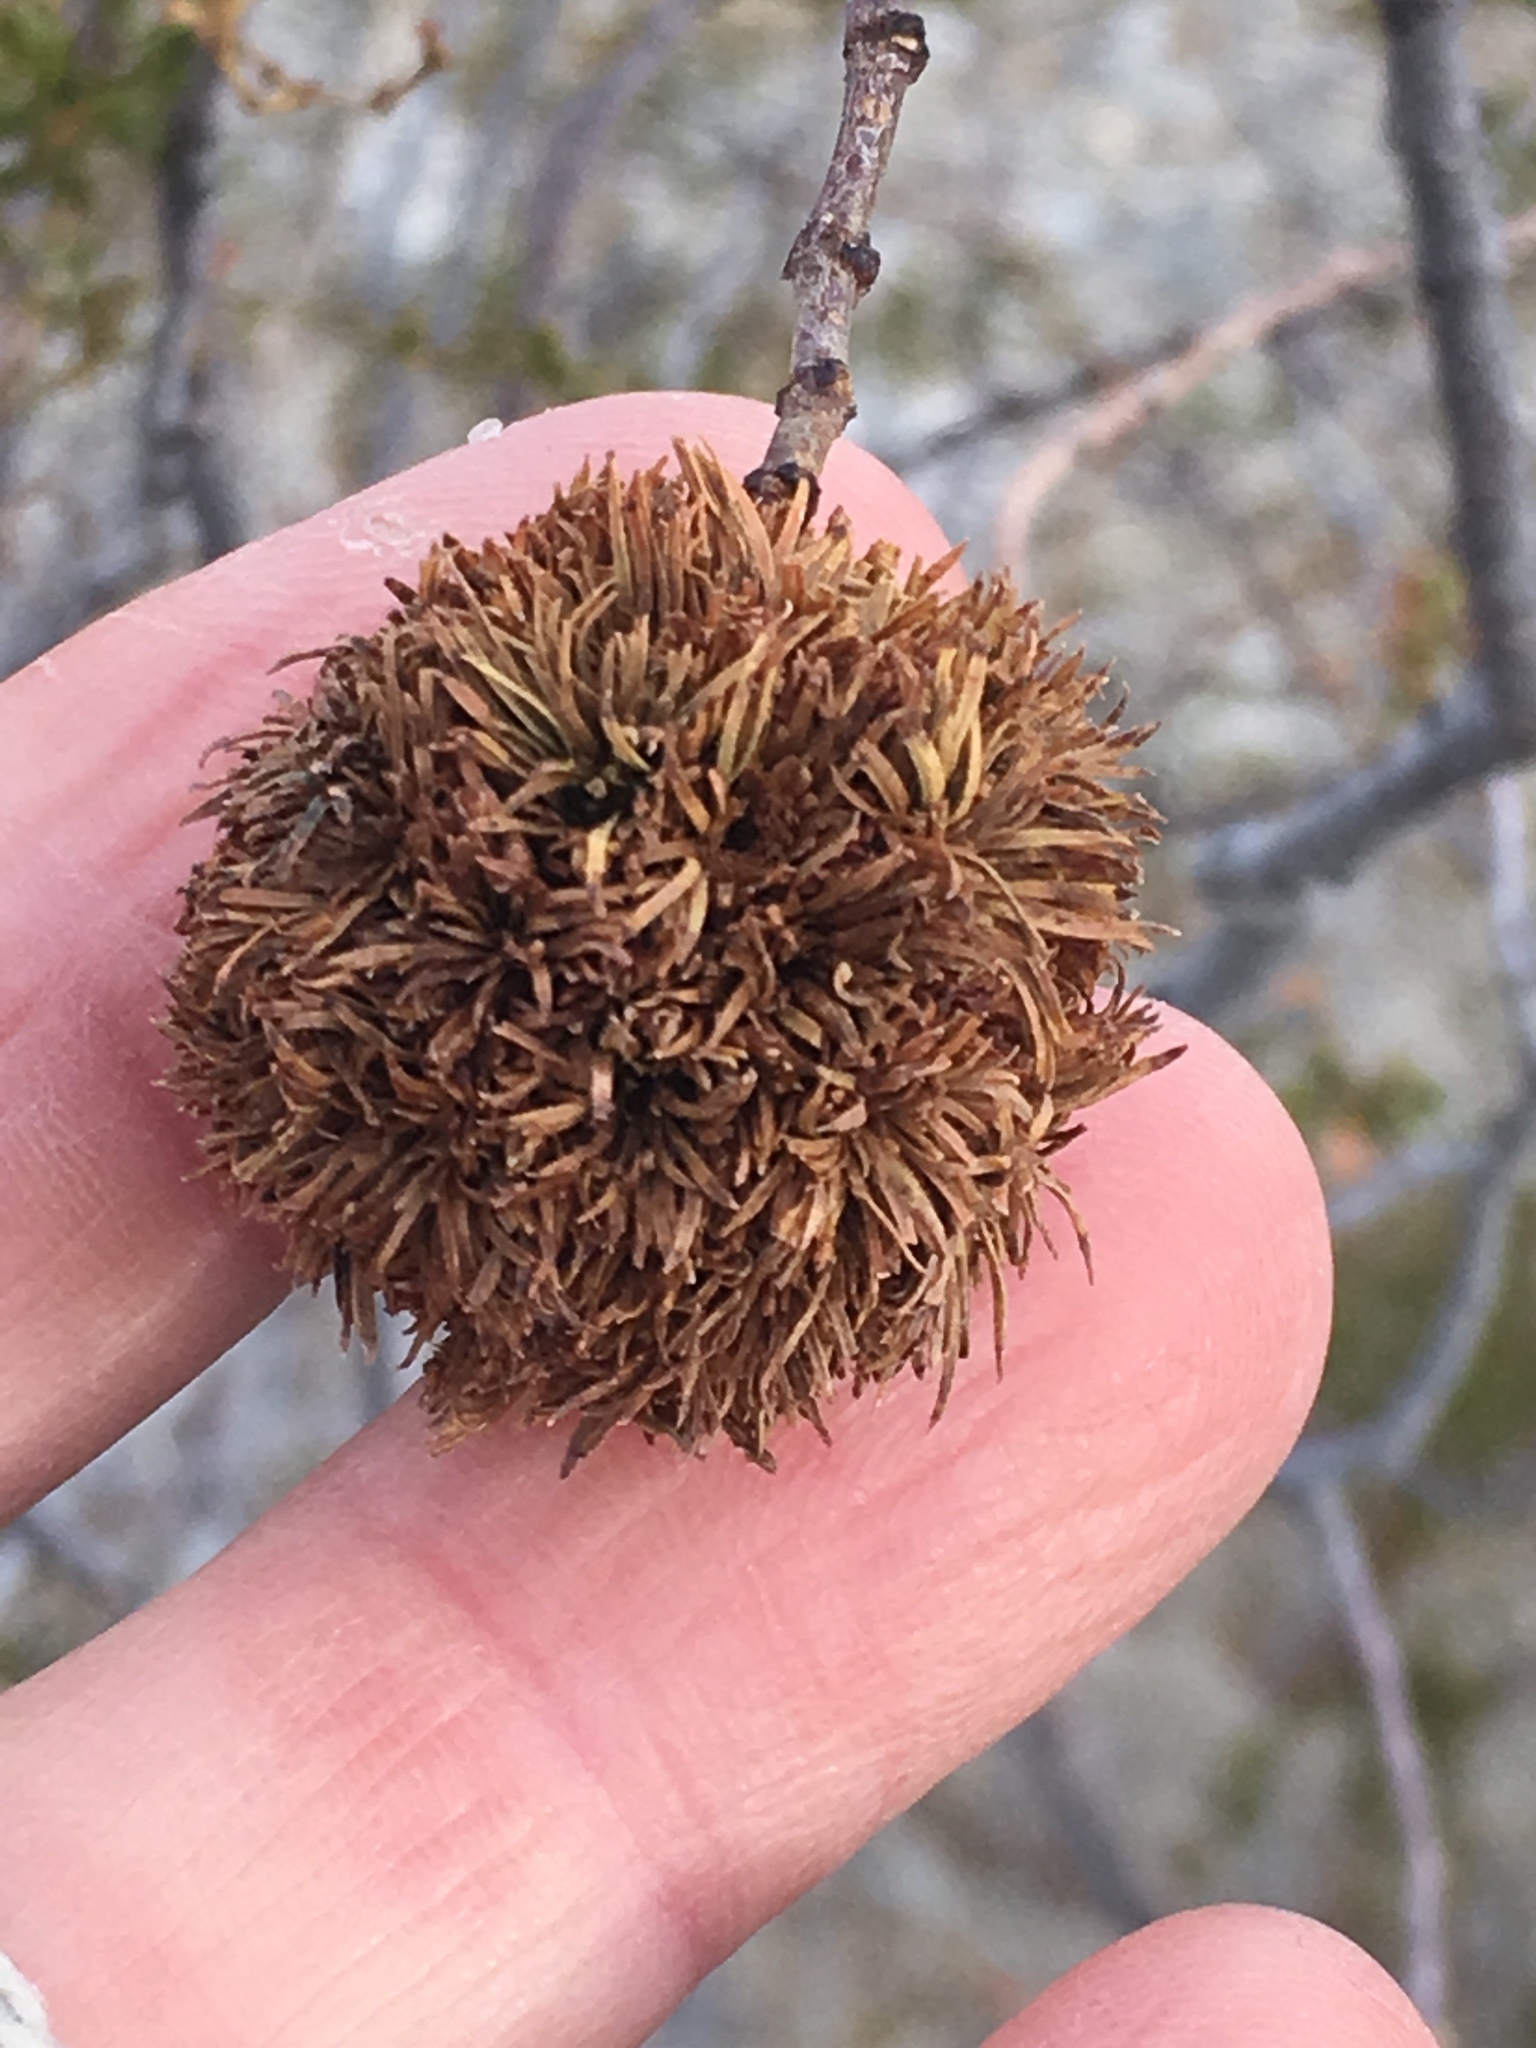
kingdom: Animalia
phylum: Arthropoda
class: Insecta
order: Diptera
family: Cecidomyiidae
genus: Asphondylia
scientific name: Asphondylia auripila
